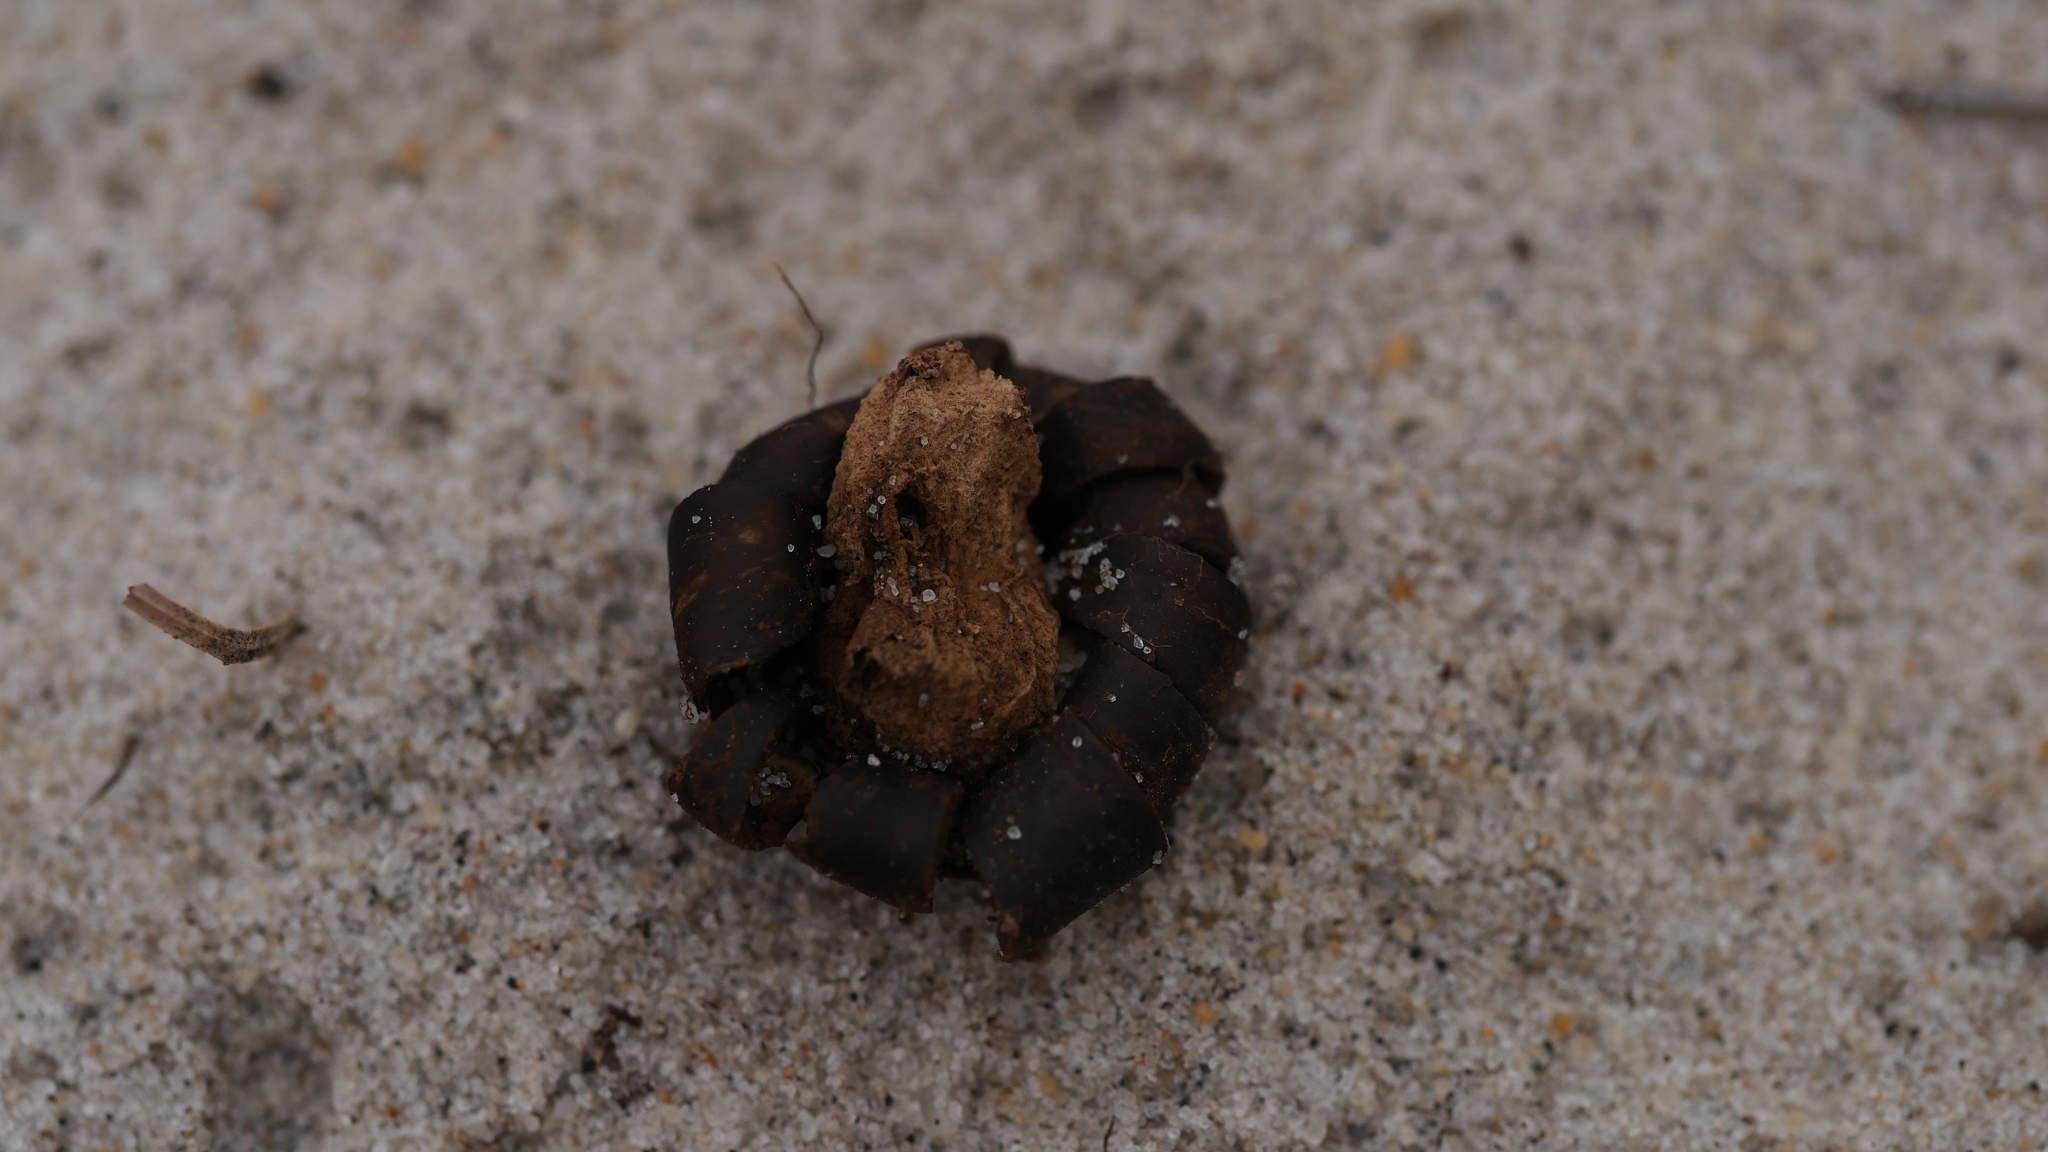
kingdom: Fungi
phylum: Basidiomycota
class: Agaricomycetes
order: Boletales
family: Diplocystidiaceae
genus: Astraeus
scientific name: Astraeus smithii
